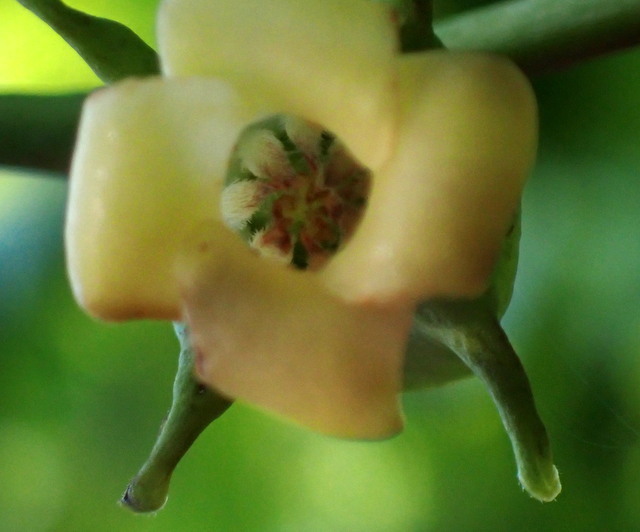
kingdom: Plantae
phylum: Tracheophyta
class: Magnoliopsida
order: Ericales
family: Ebenaceae
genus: Diospyros
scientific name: Diospyros virginiana
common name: Persimmon
